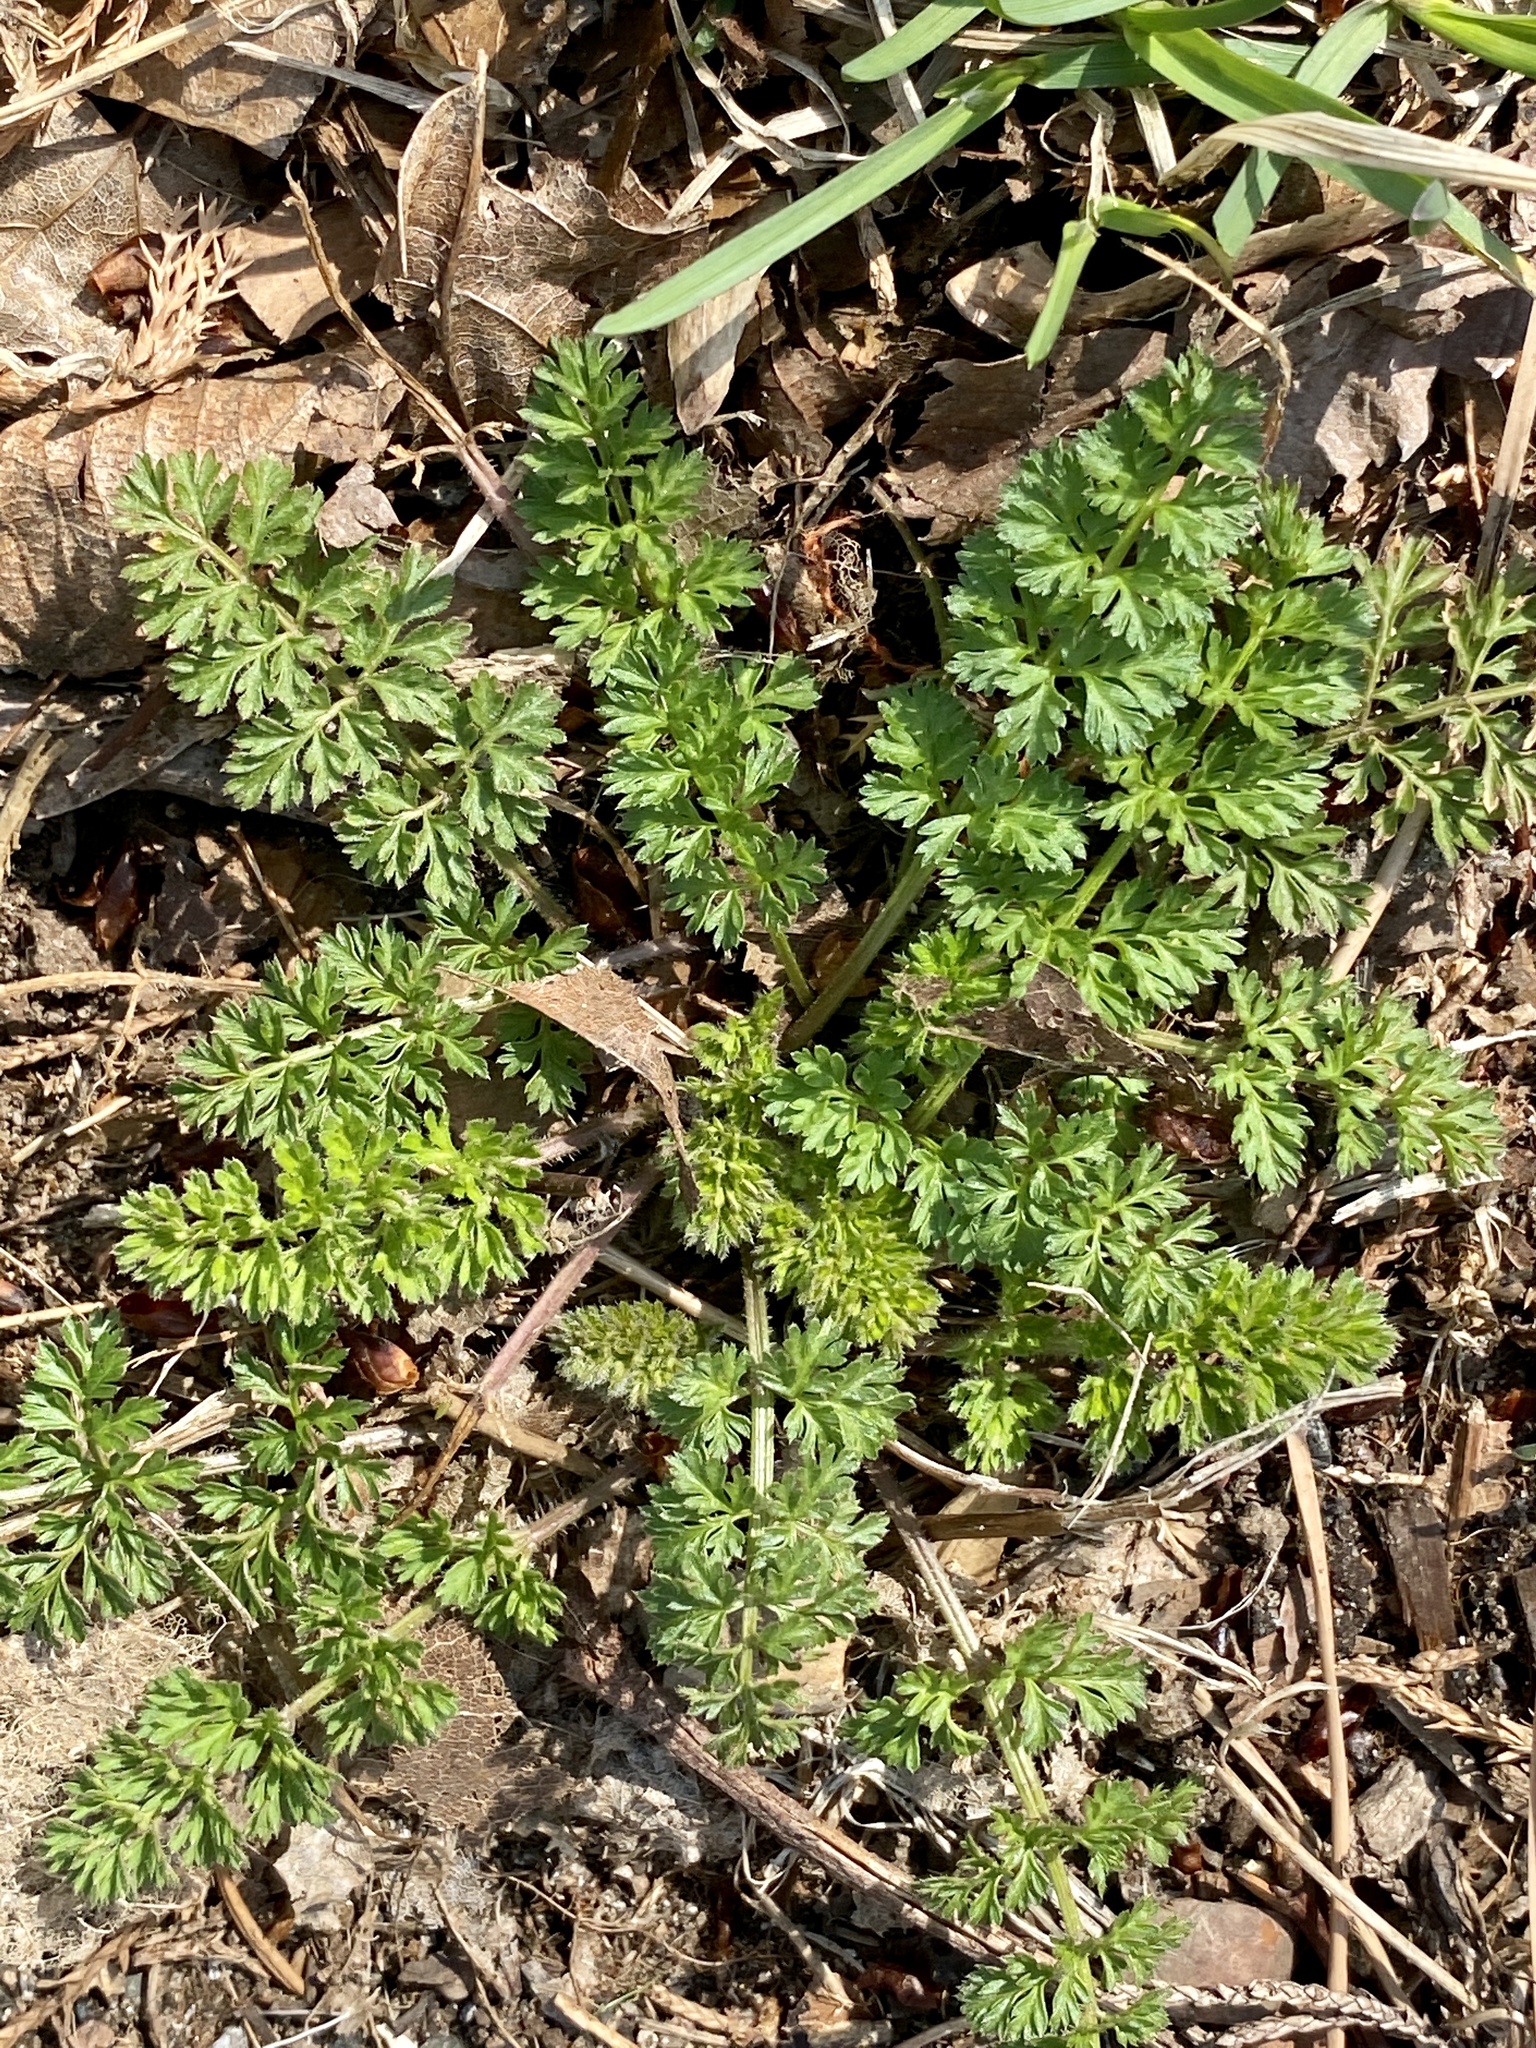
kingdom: Plantae
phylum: Tracheophyta
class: Magnoliopsida
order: Apiales
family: Apiaceae
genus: Daucus
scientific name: Daucus carota
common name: Wild carrot
